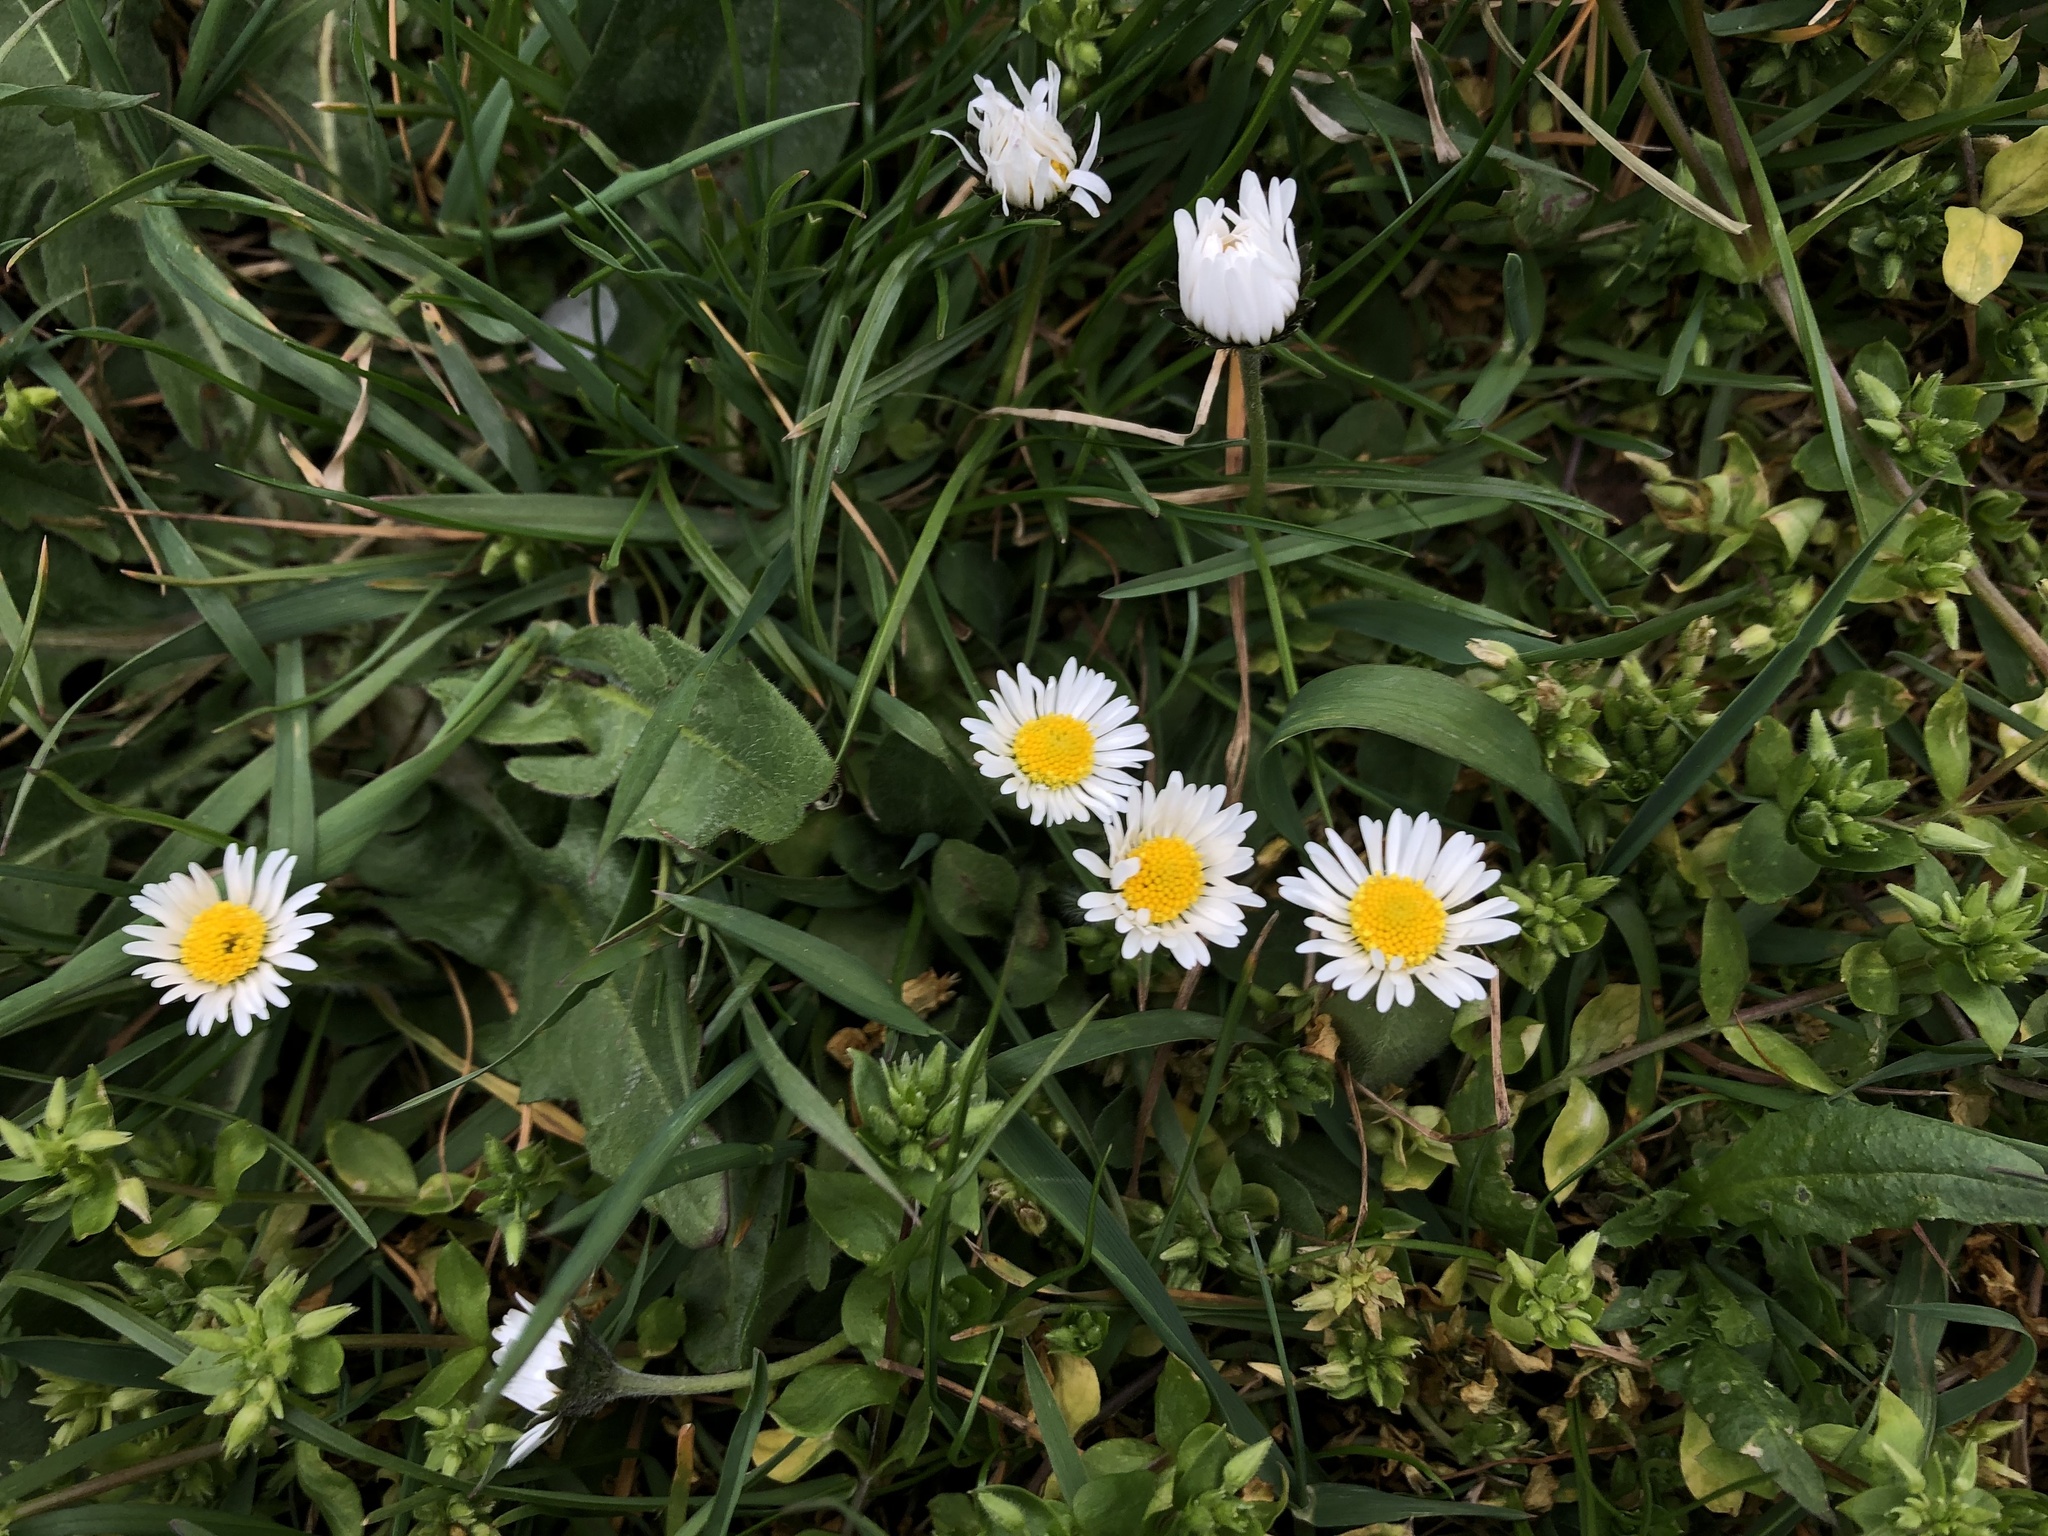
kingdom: Plantae
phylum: Tracheophyta
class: Magnoliopsida
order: Asterales
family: Asteraceae
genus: Bellis
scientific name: Bellis perennis
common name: Lawndaisy
